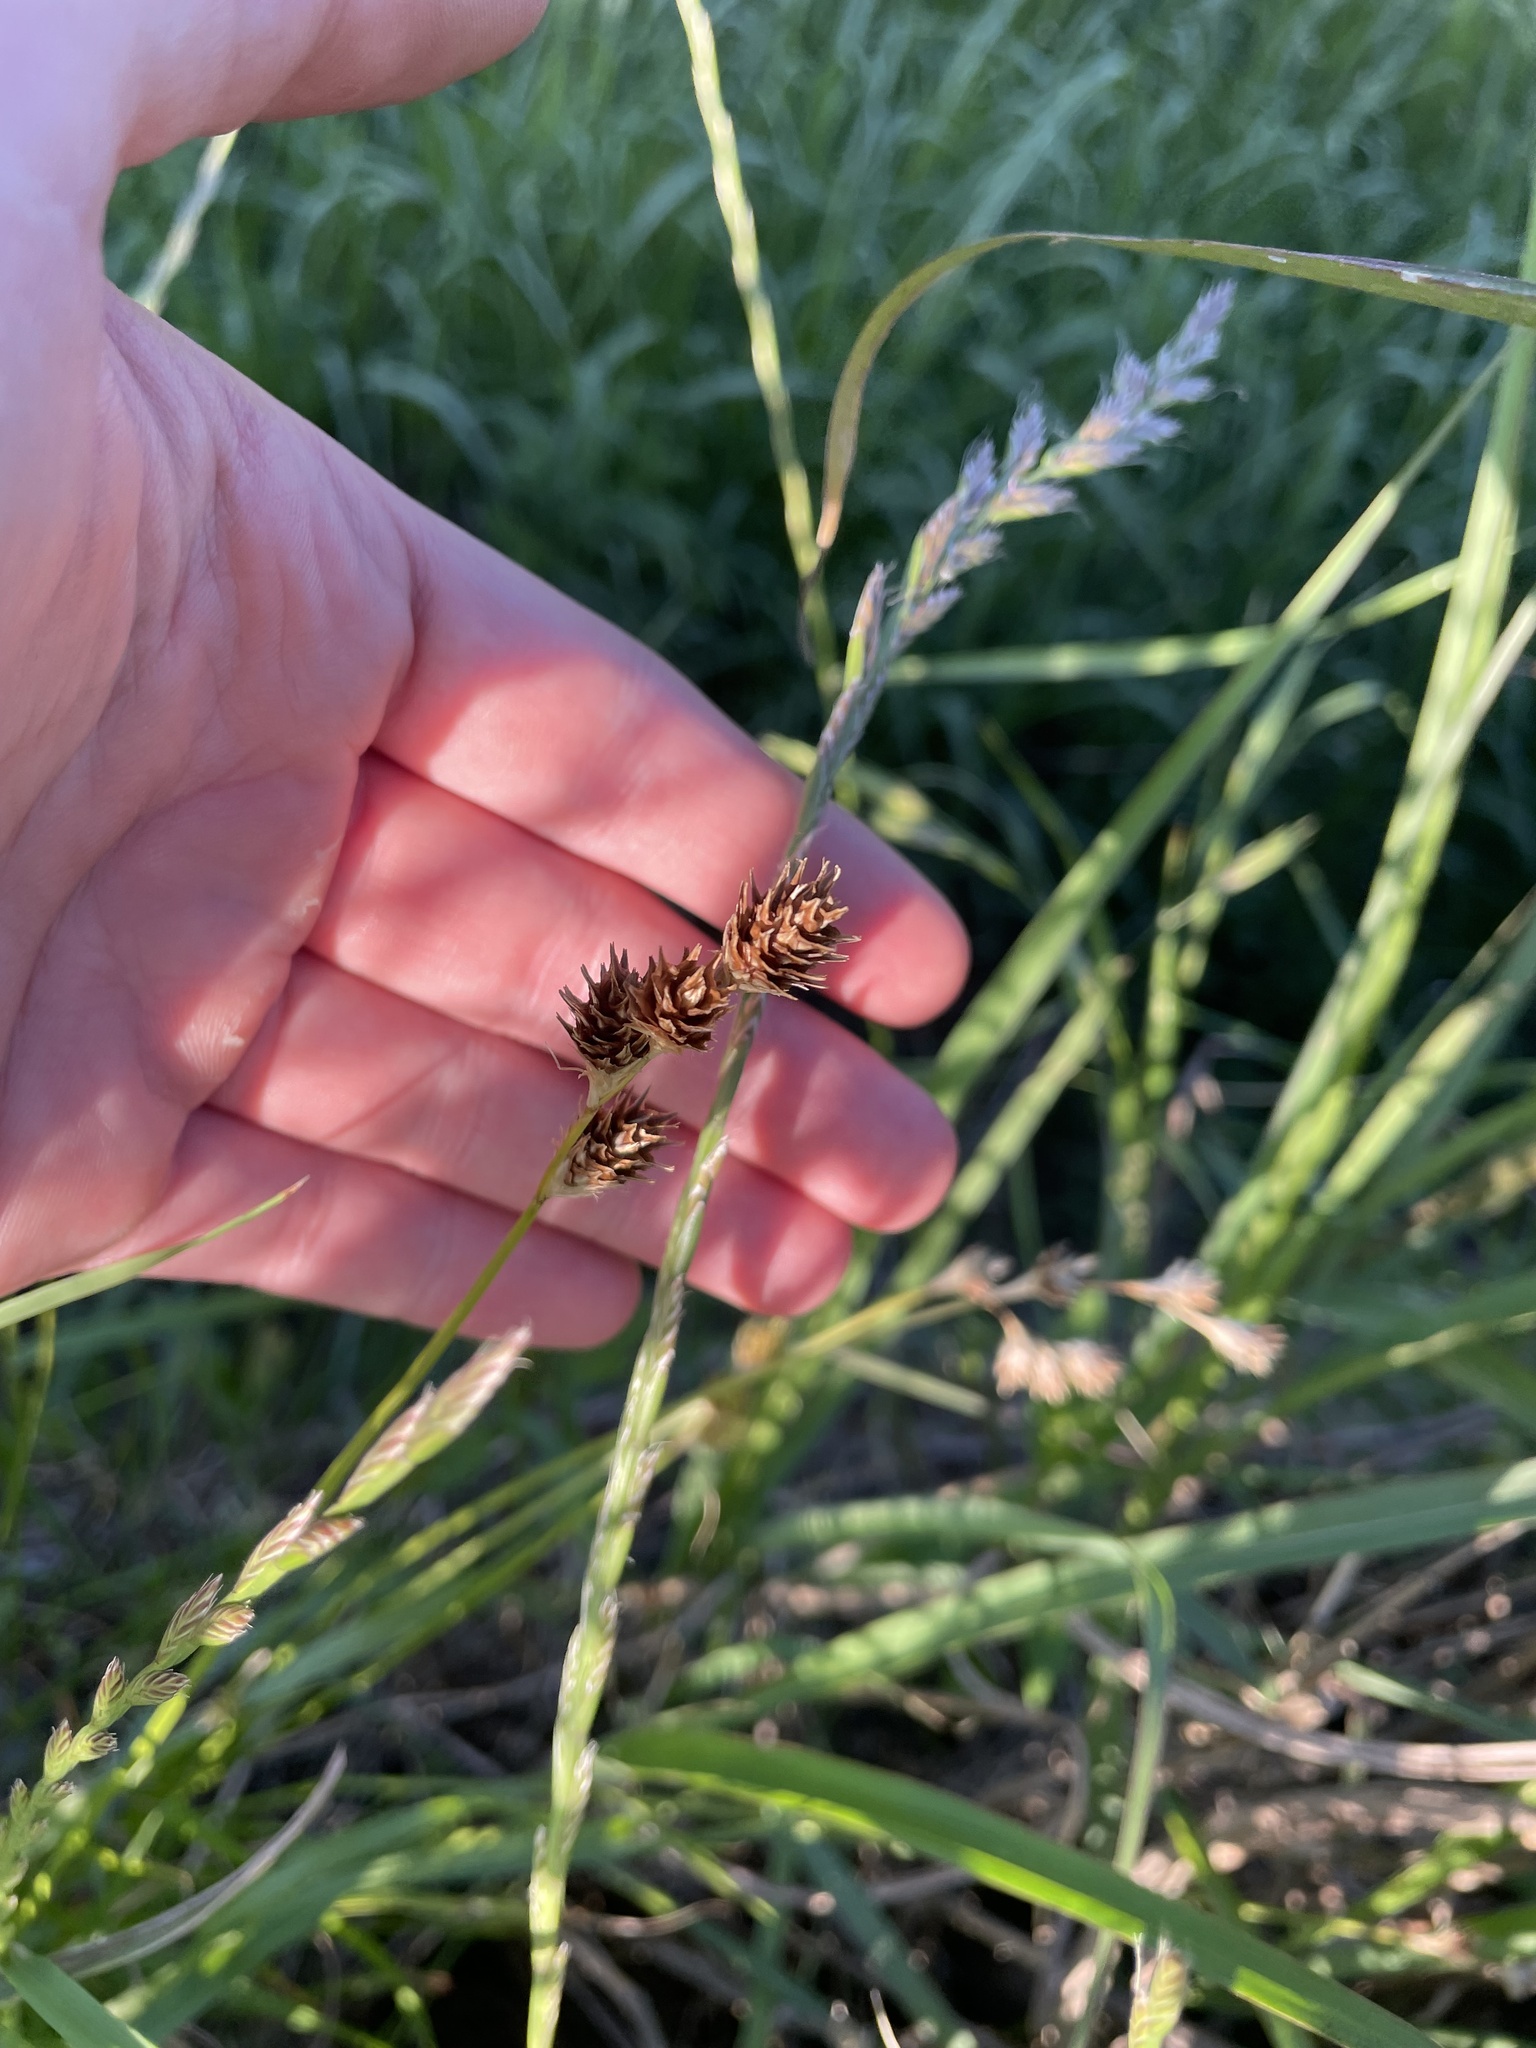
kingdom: Plantae
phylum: Tracheophyta
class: Liliopsida
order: Poales
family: Cyperaceae
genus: Carex
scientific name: Carex tetrastachya
